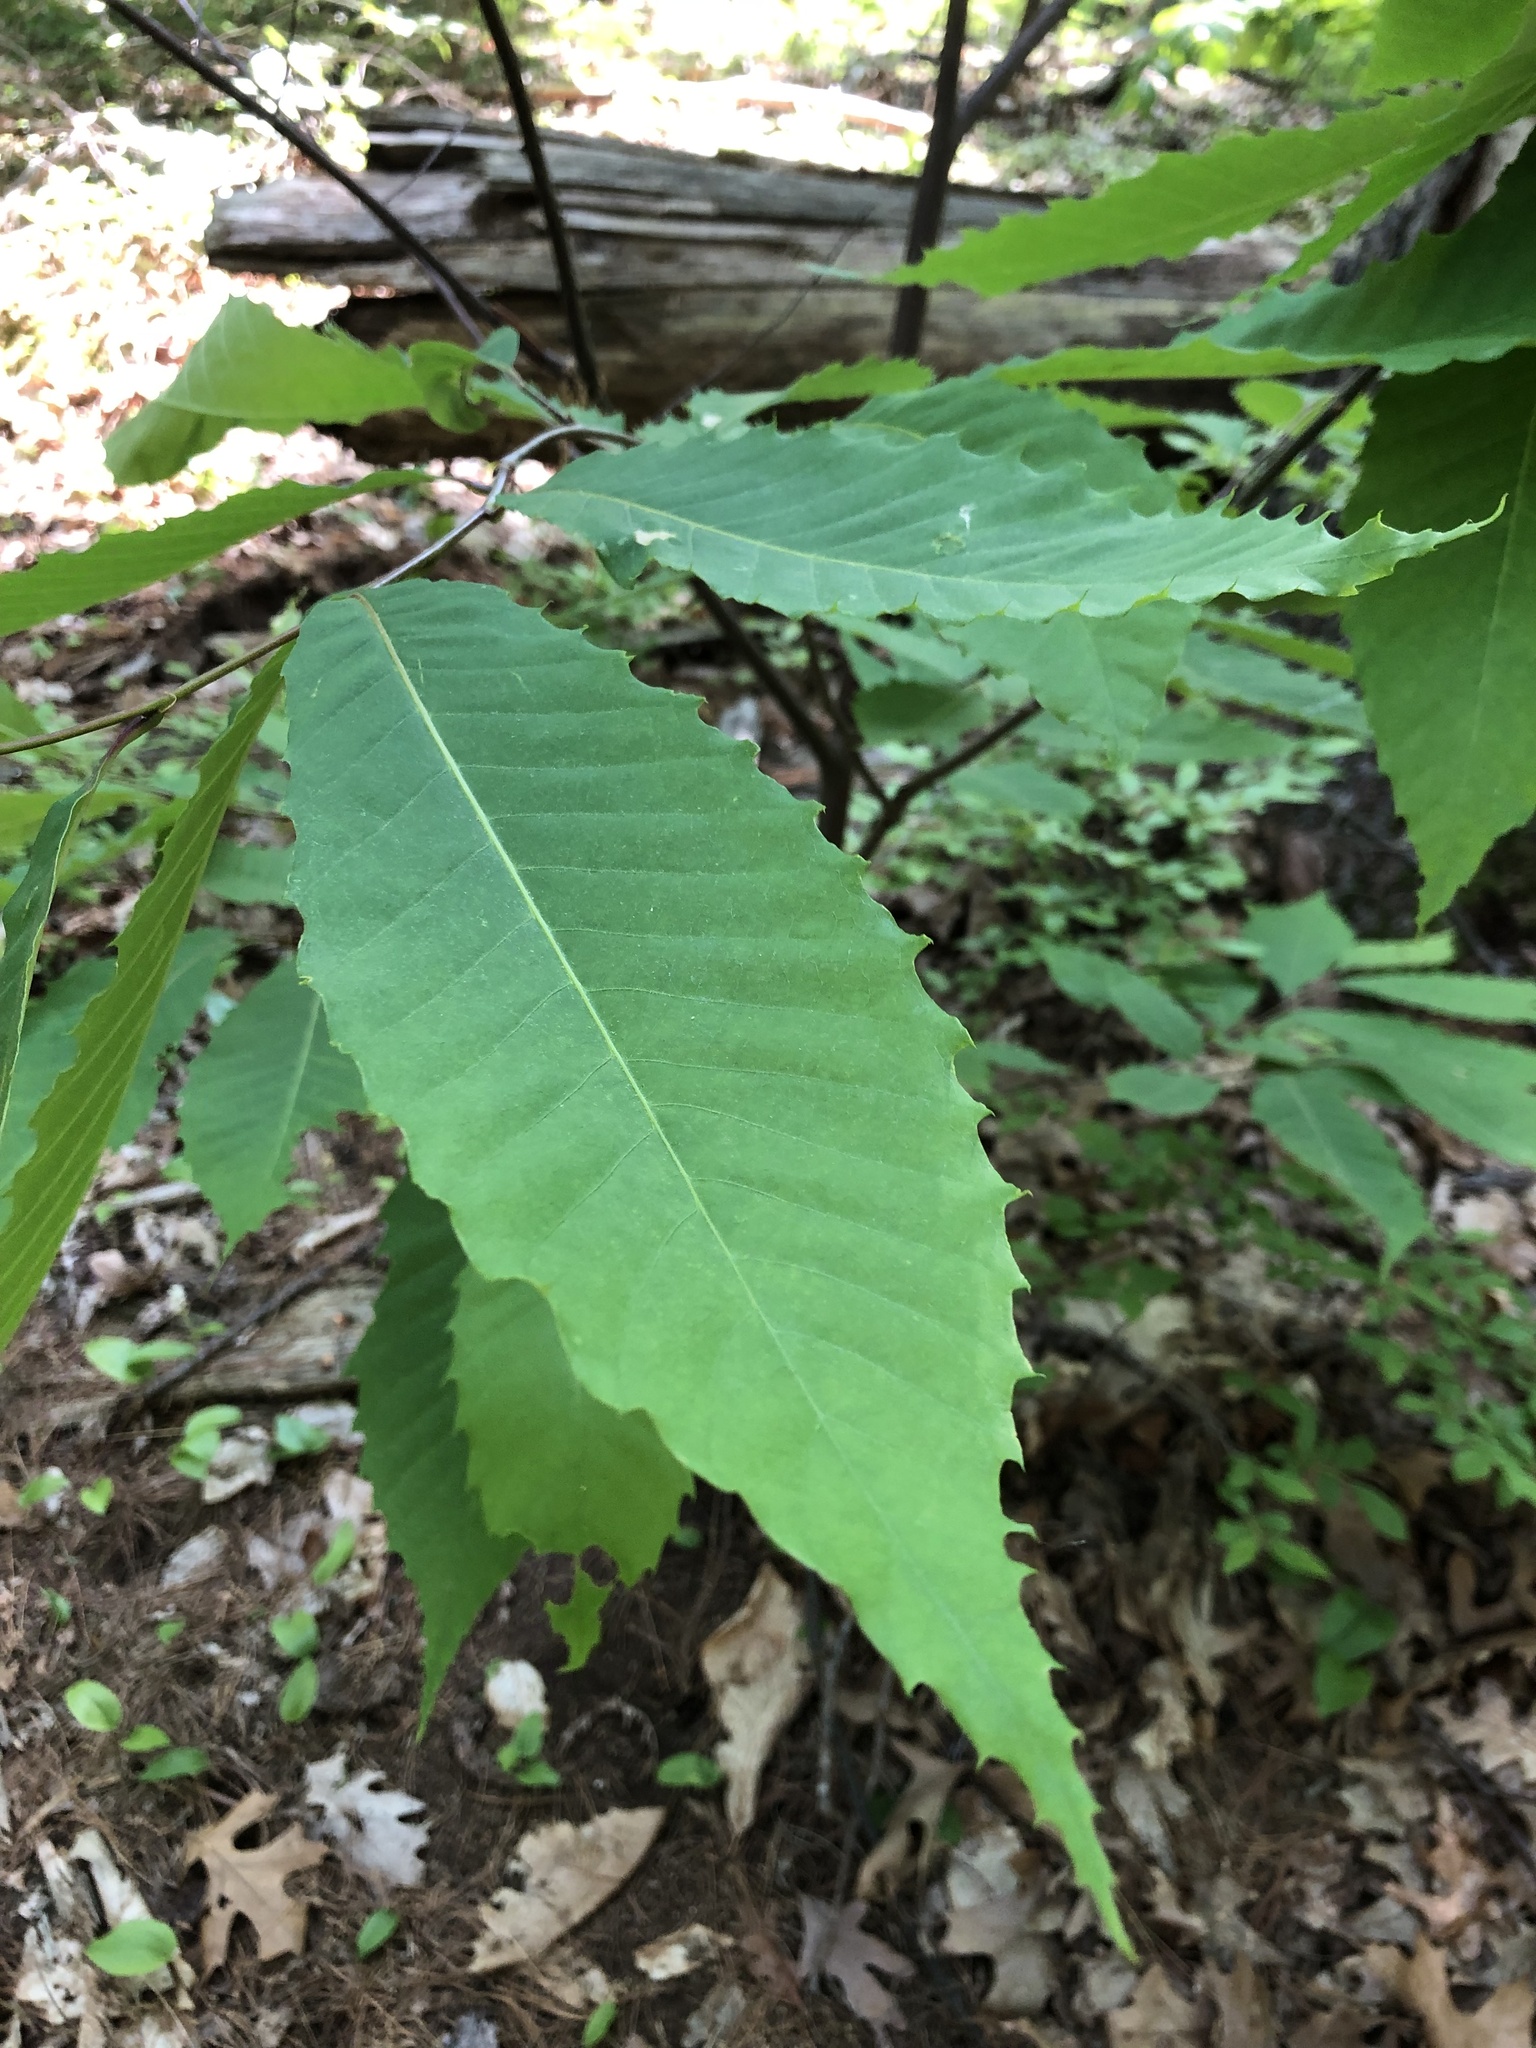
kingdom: Plantae
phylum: Tracheophyta
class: Magnoliopsida
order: Fagales
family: Fagaceae
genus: Castanea
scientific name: Castanea dentata
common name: American chestnut
